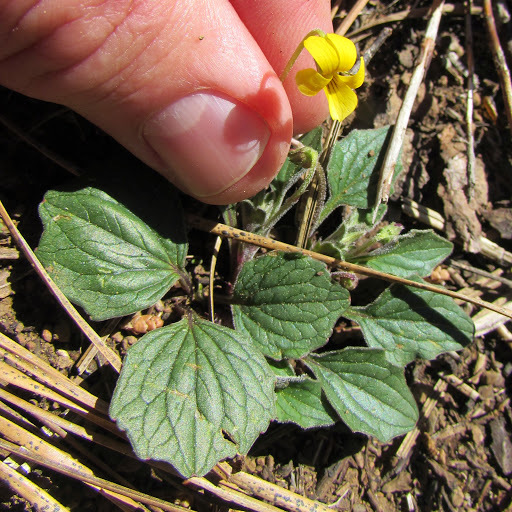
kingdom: Plantae
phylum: Tracheophyta
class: Magnoliopsida
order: Malpighiales
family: Violaceae
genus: Viola
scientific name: Viola purpurea
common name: Pine violet
